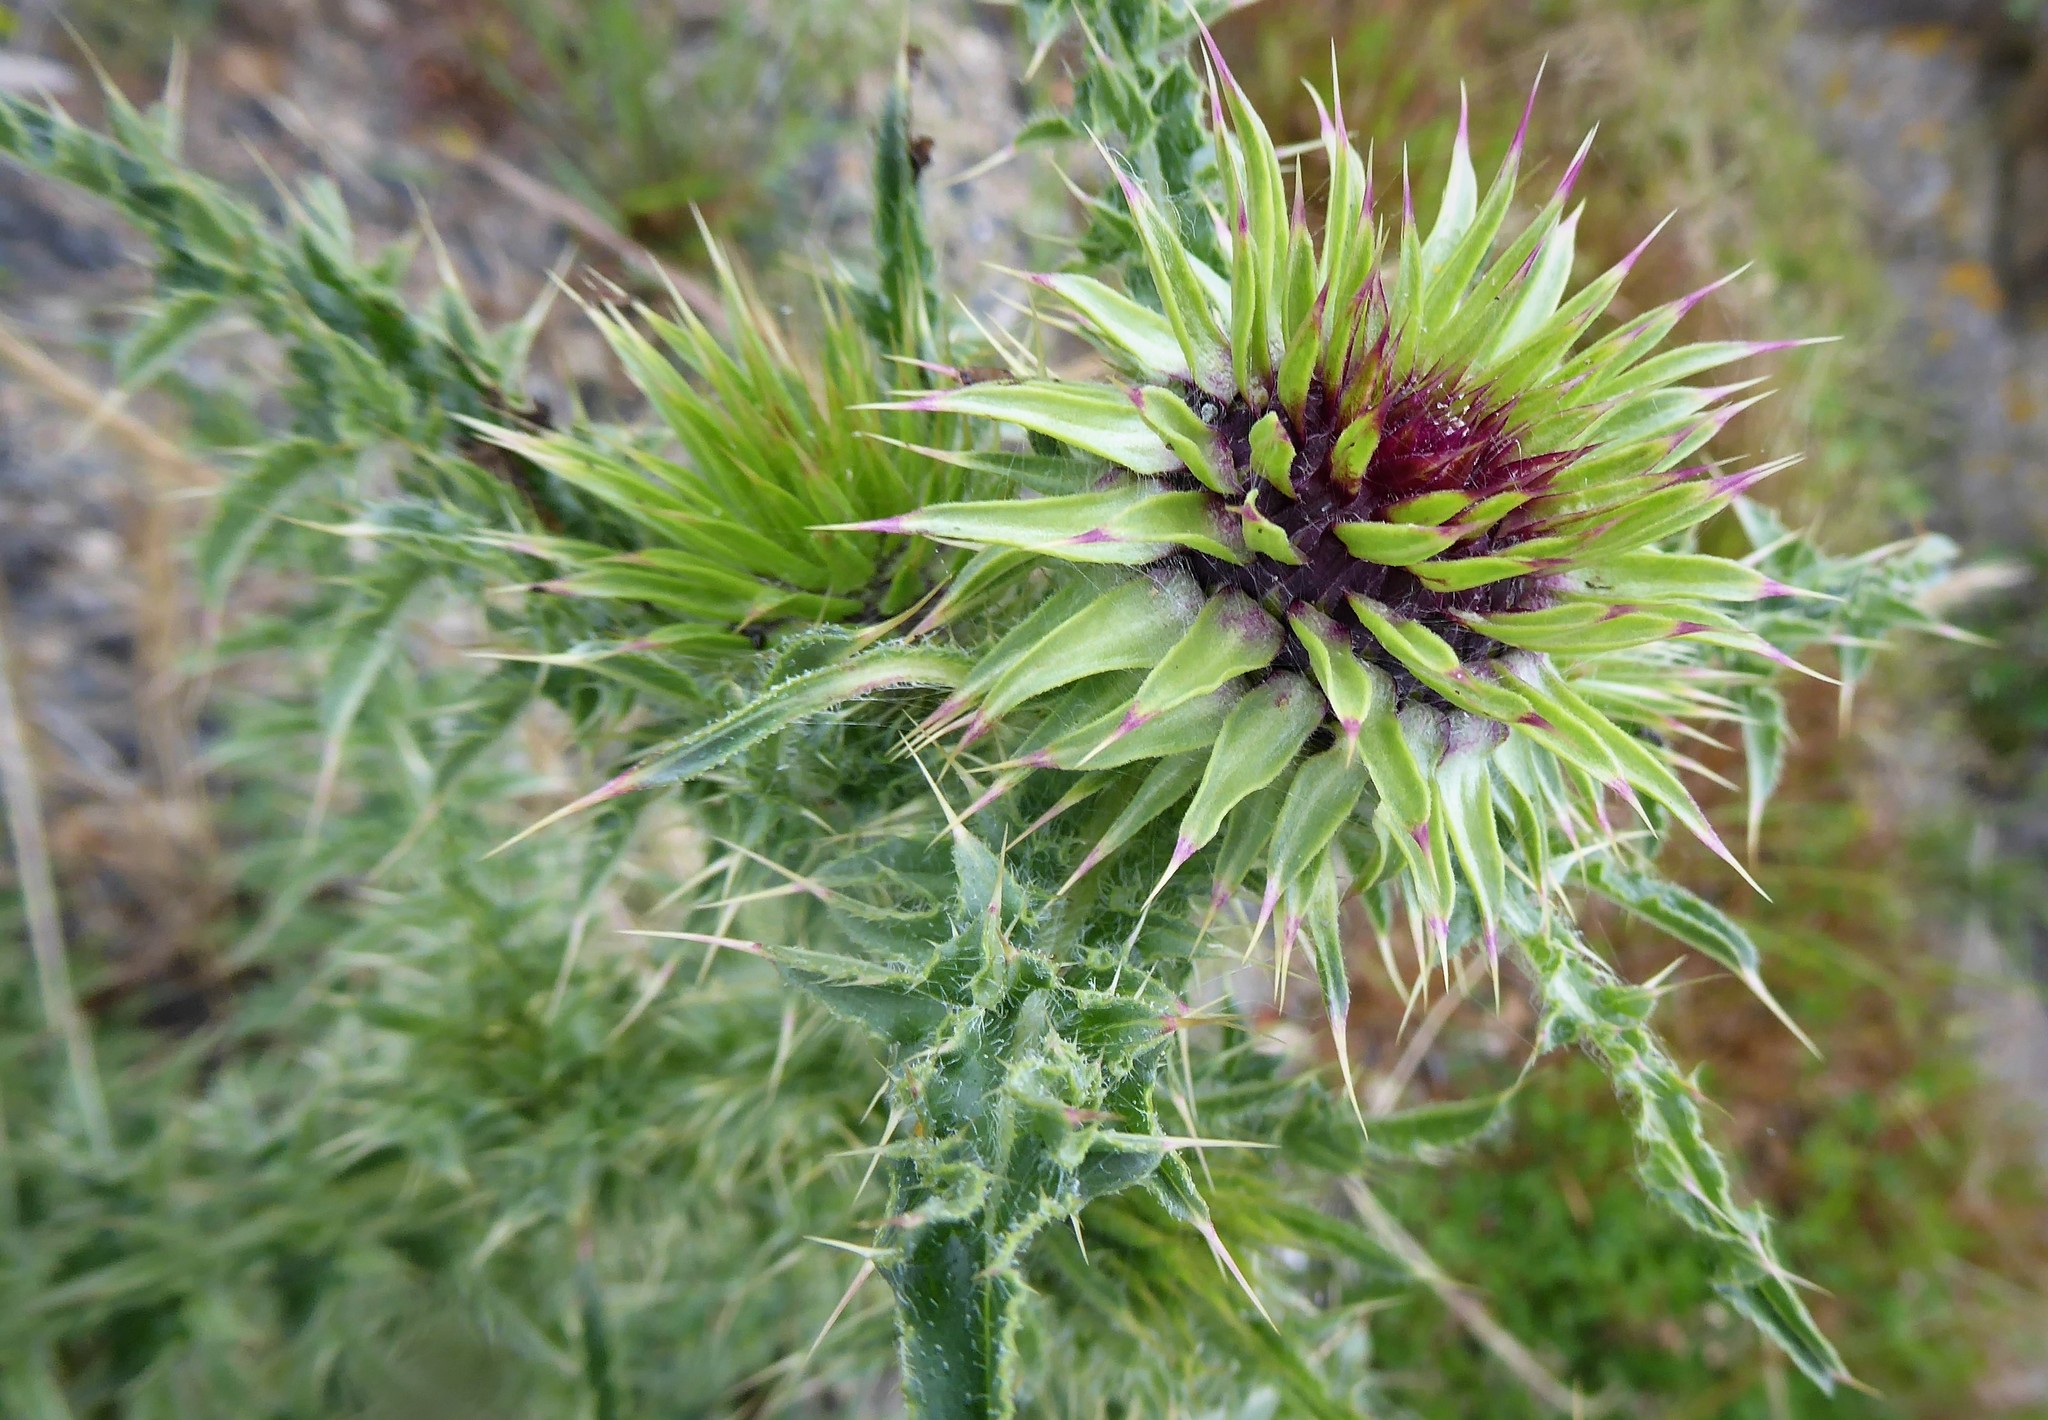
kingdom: Plantae
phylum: Tracheophyta
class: Magnoliopsida
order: Asterales
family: Asteraceae
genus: Carduus
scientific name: Carduus nutans
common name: Musk thistle
